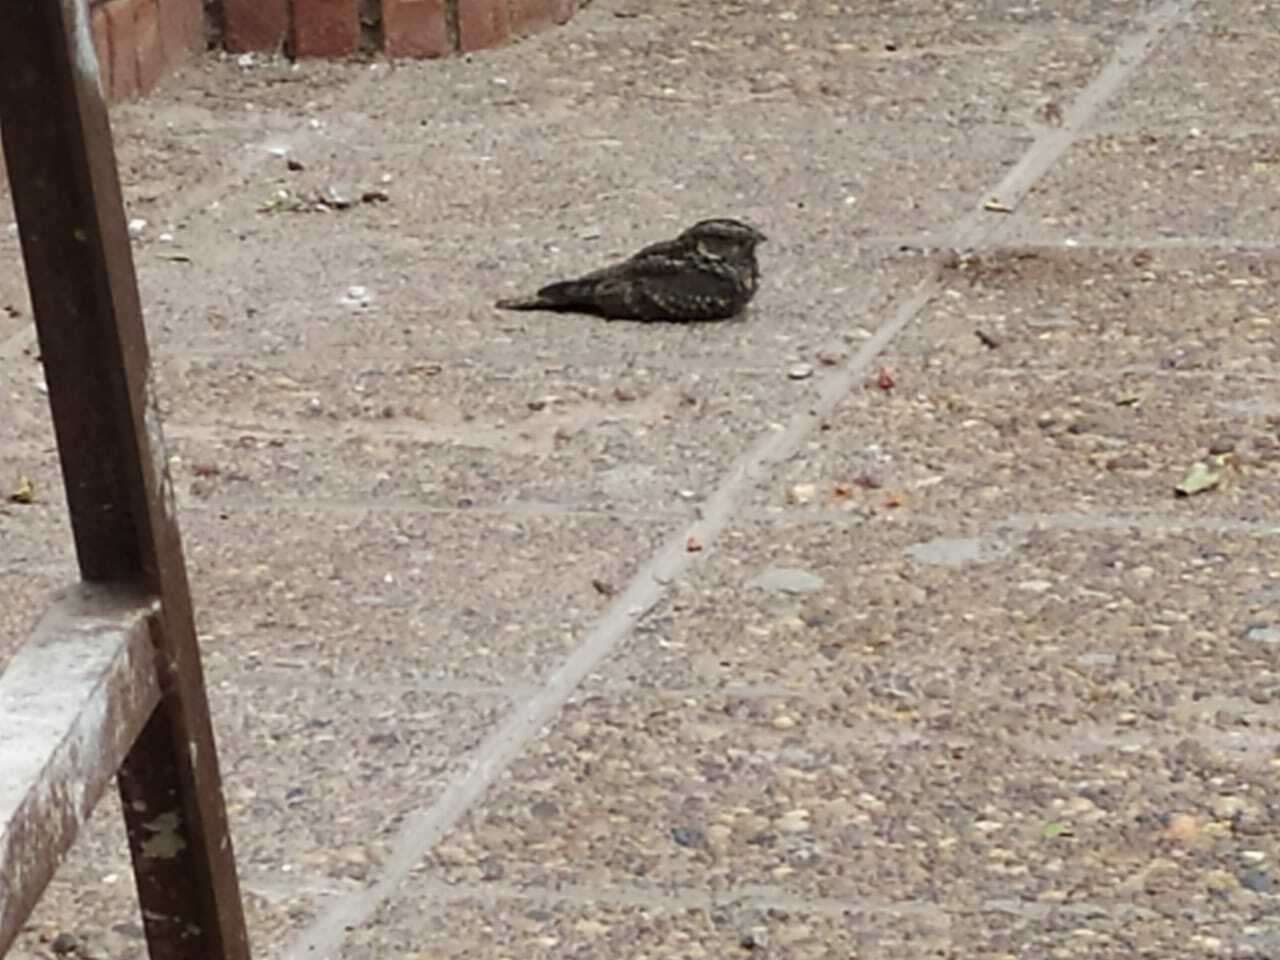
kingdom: Animalia
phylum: Chordata
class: Aves
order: Caprimulgiformes
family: Caprimulgidae
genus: Systellura
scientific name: Systellura longirostris
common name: Band-winged nightjar
